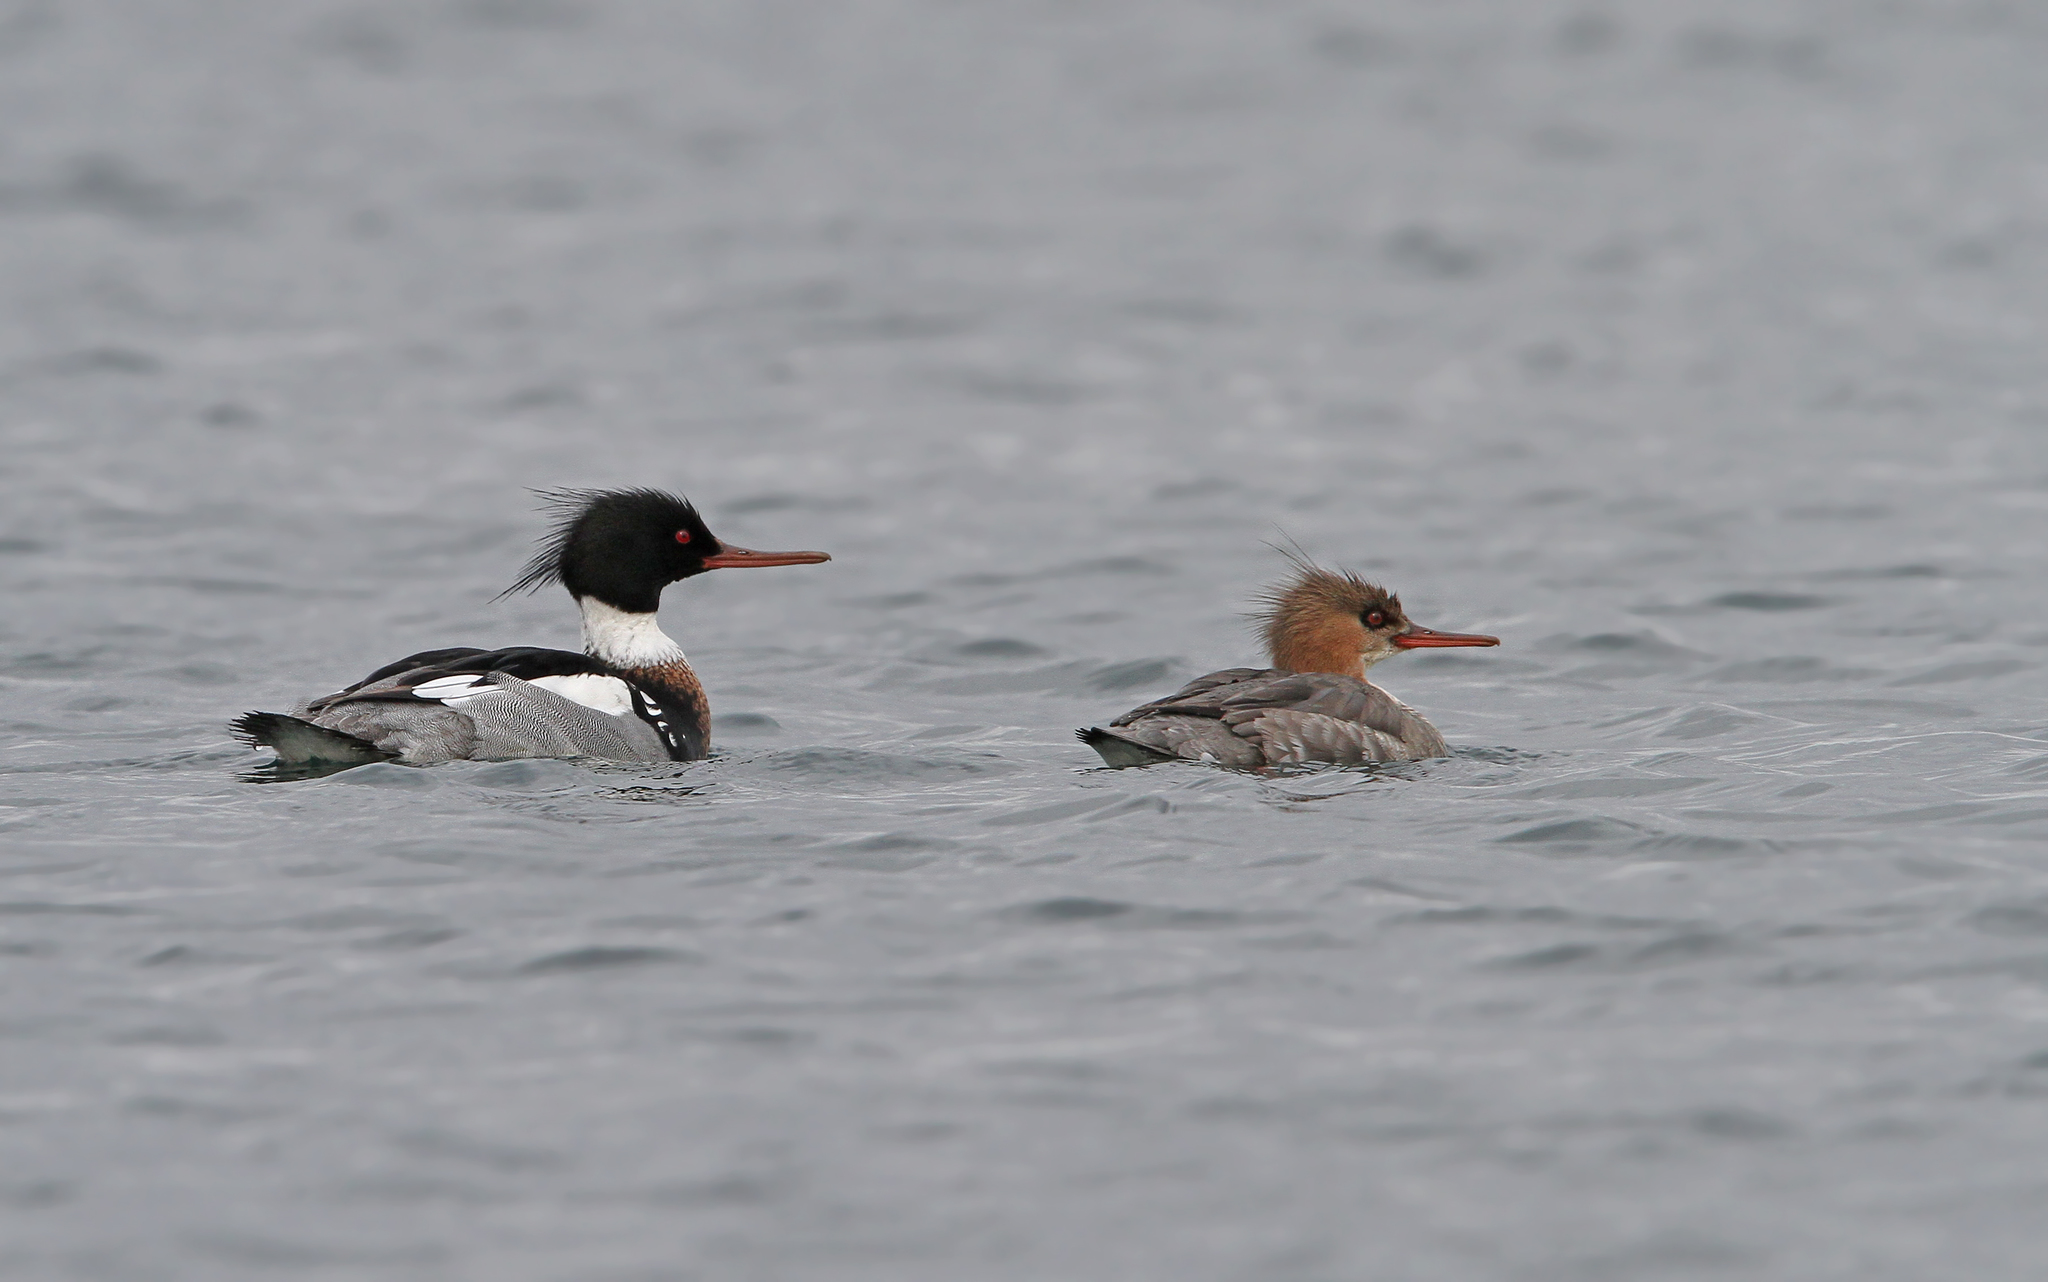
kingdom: Animalia
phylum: Chordata
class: Aves
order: Anseriformes
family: Anatidae
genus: Mergus
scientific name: Mergus serrator
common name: Red-breasted merganser
